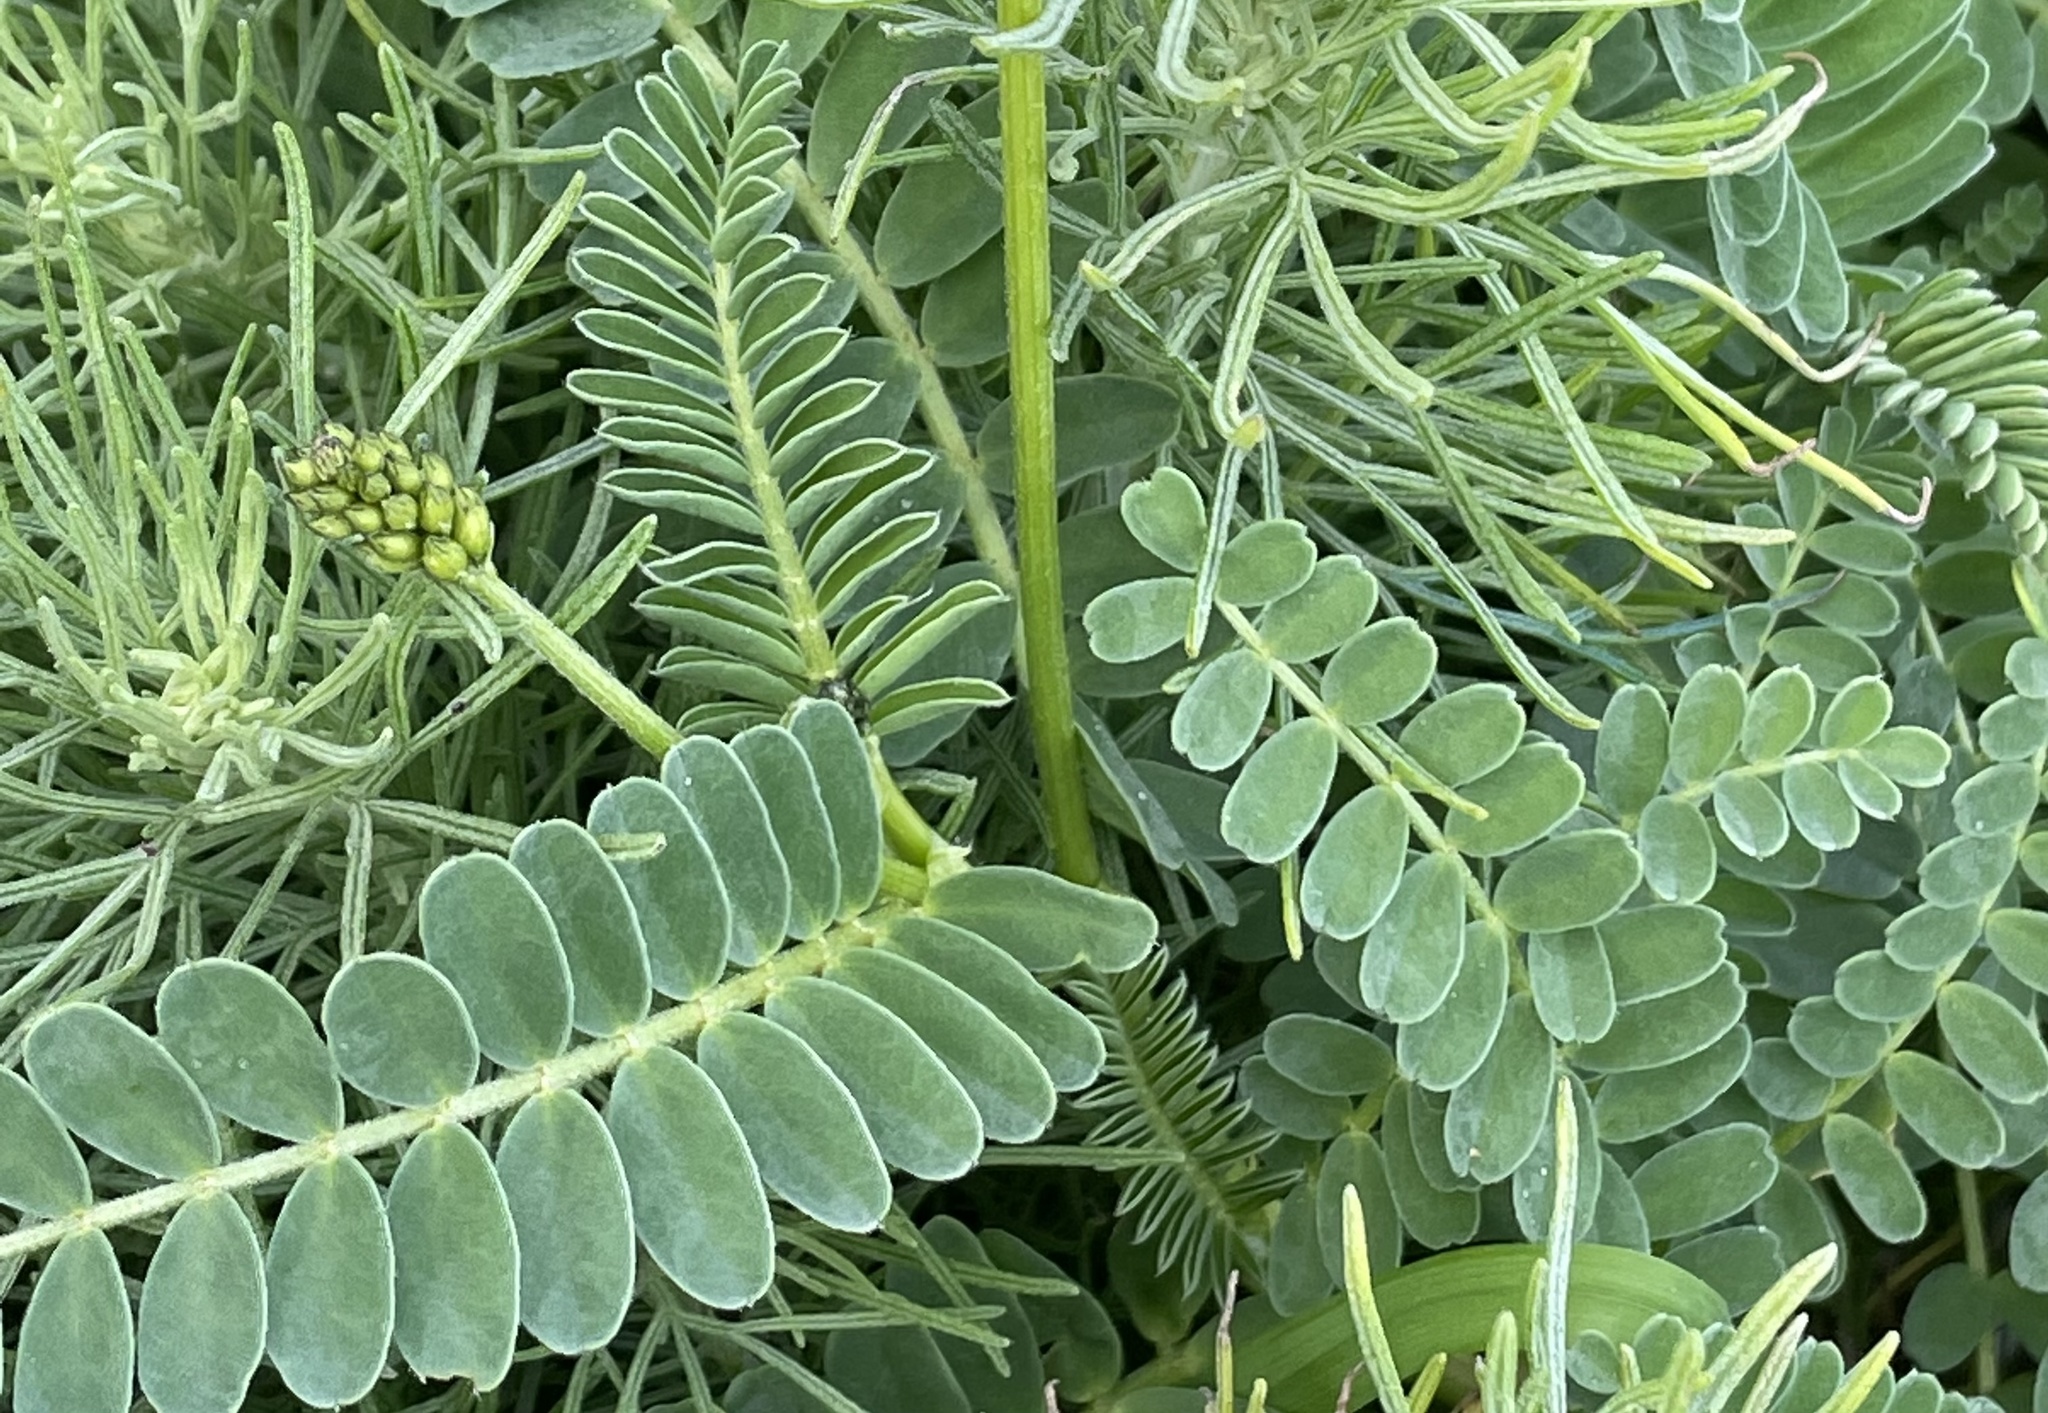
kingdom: Plantae
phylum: Tracheophyta
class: Magnoliopsida
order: Fabales
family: Fabaceae
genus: Astragalus
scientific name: Astragalus nuttallii
